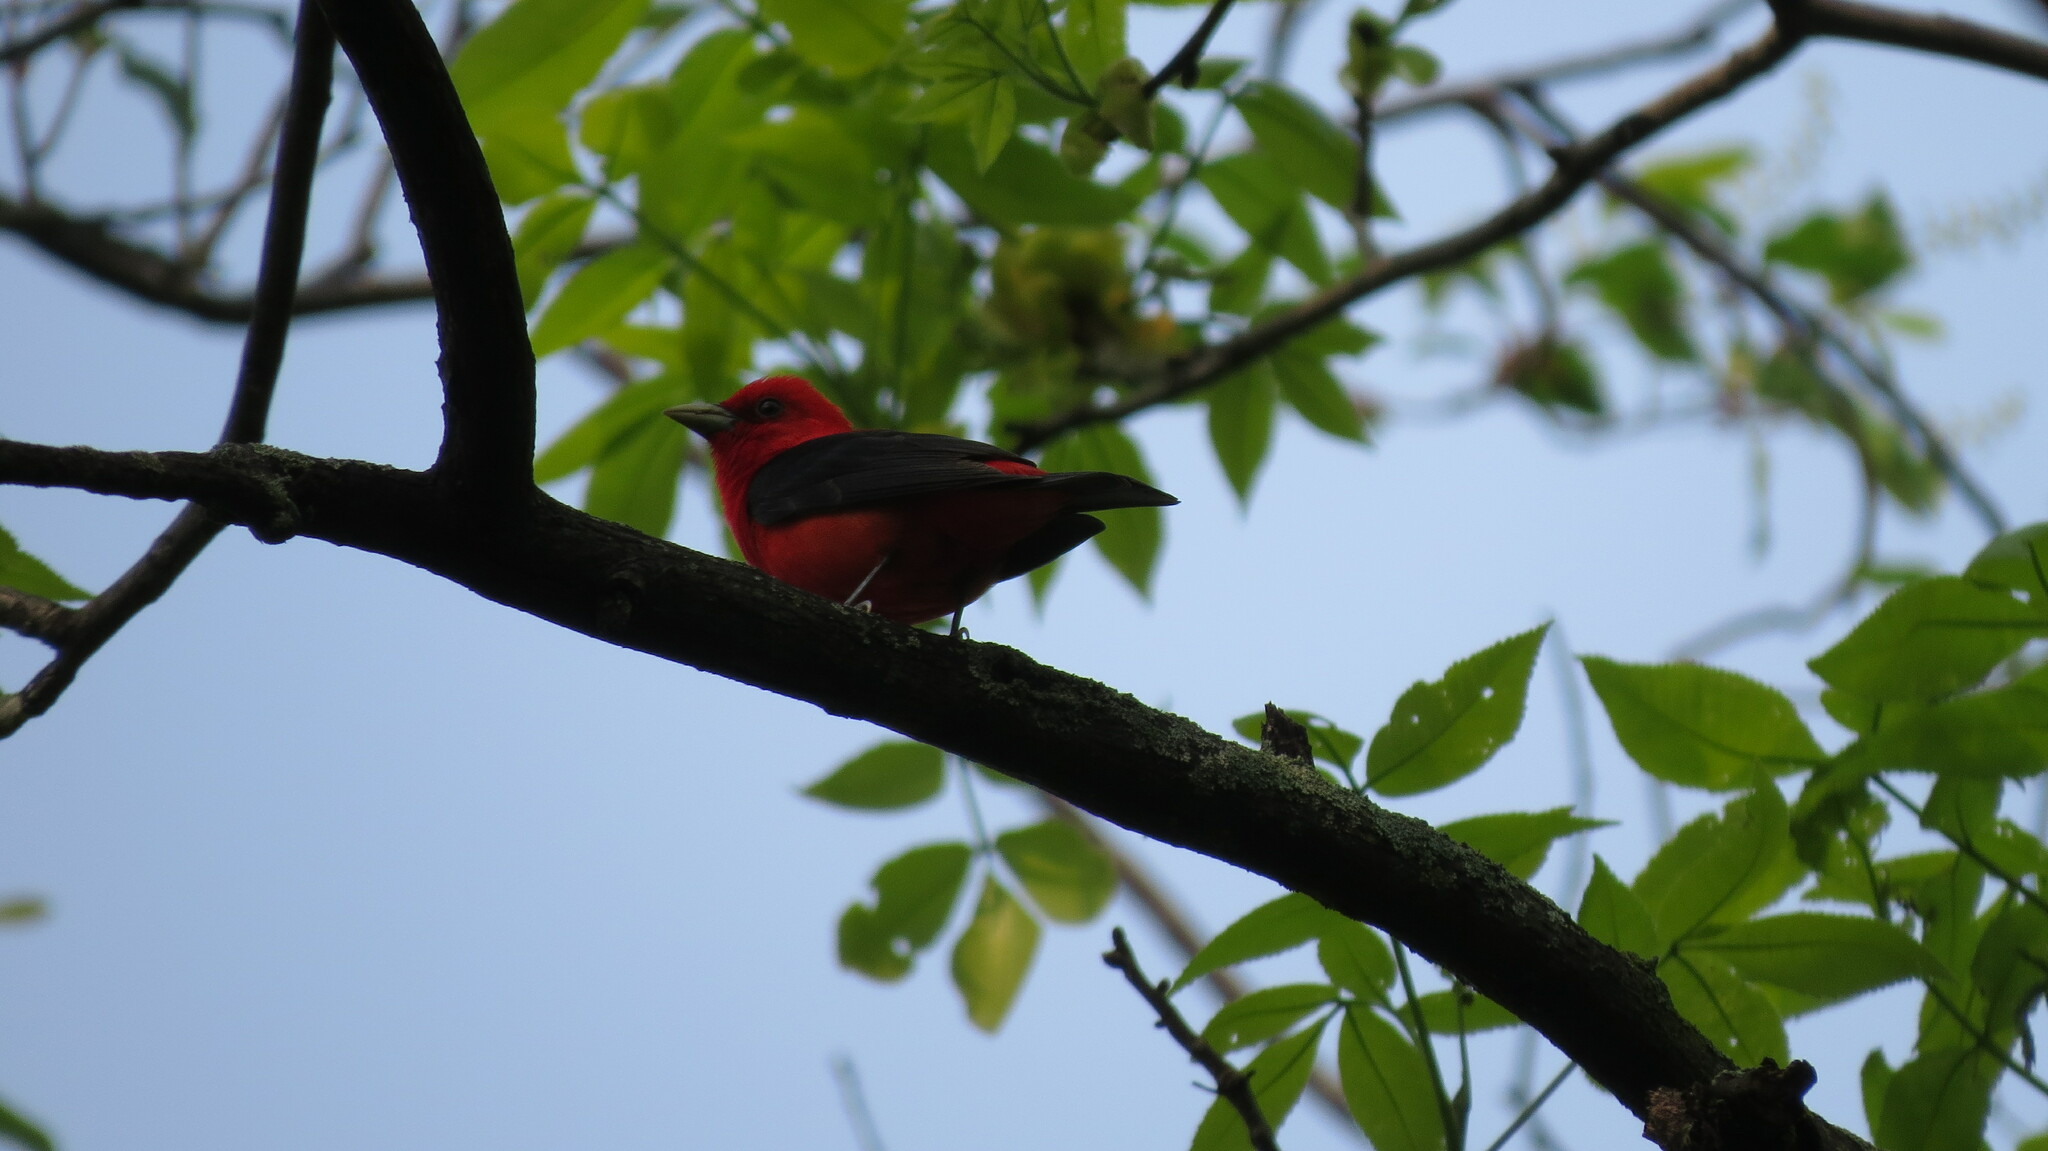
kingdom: Animalia
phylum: Chordata
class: Aves
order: Passeriformes
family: Cardinalidae
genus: Piranga
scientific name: Piranga olivacea
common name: Scarlet tanager
